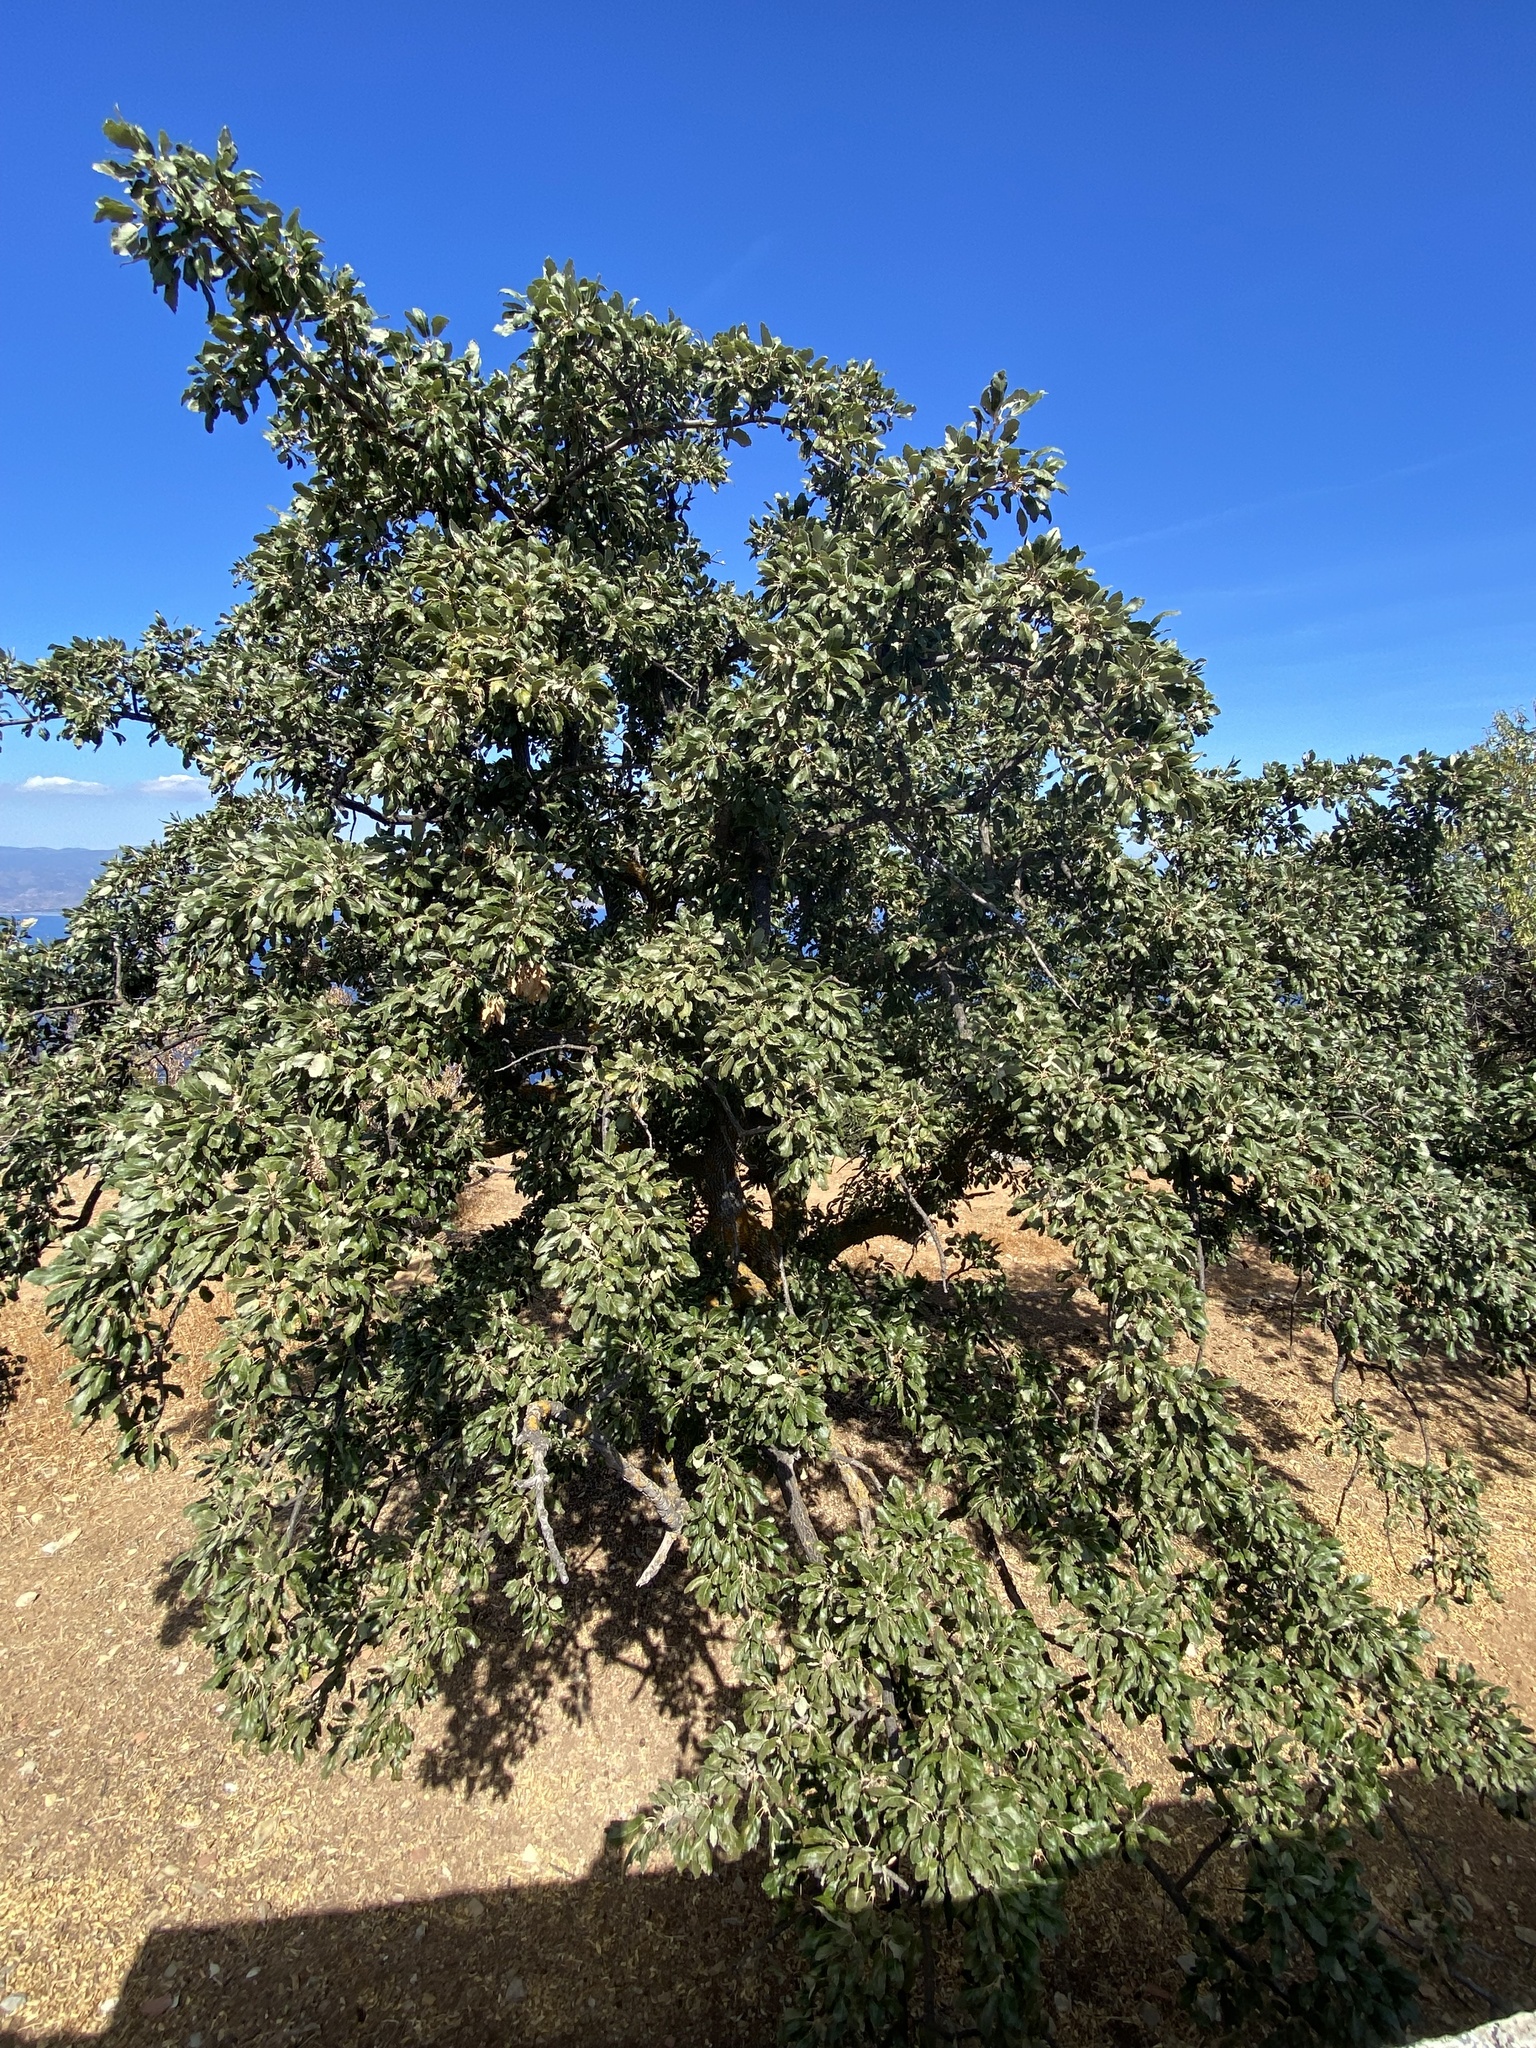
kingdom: Plantae
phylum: Tracheophyta
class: Magnoliopsida
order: Fagales
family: Fagaceae
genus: Quercus
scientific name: Quercus ithaburensis
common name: Tabor oak
